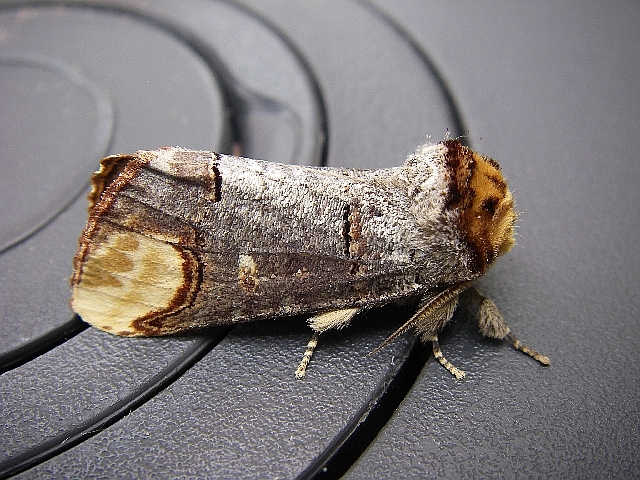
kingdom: Animalia
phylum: Arthropoda
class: Insecta
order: Lepidoptera
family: Notodontidae
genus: Phalera
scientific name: Phalera bucephala
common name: Buff-tip
